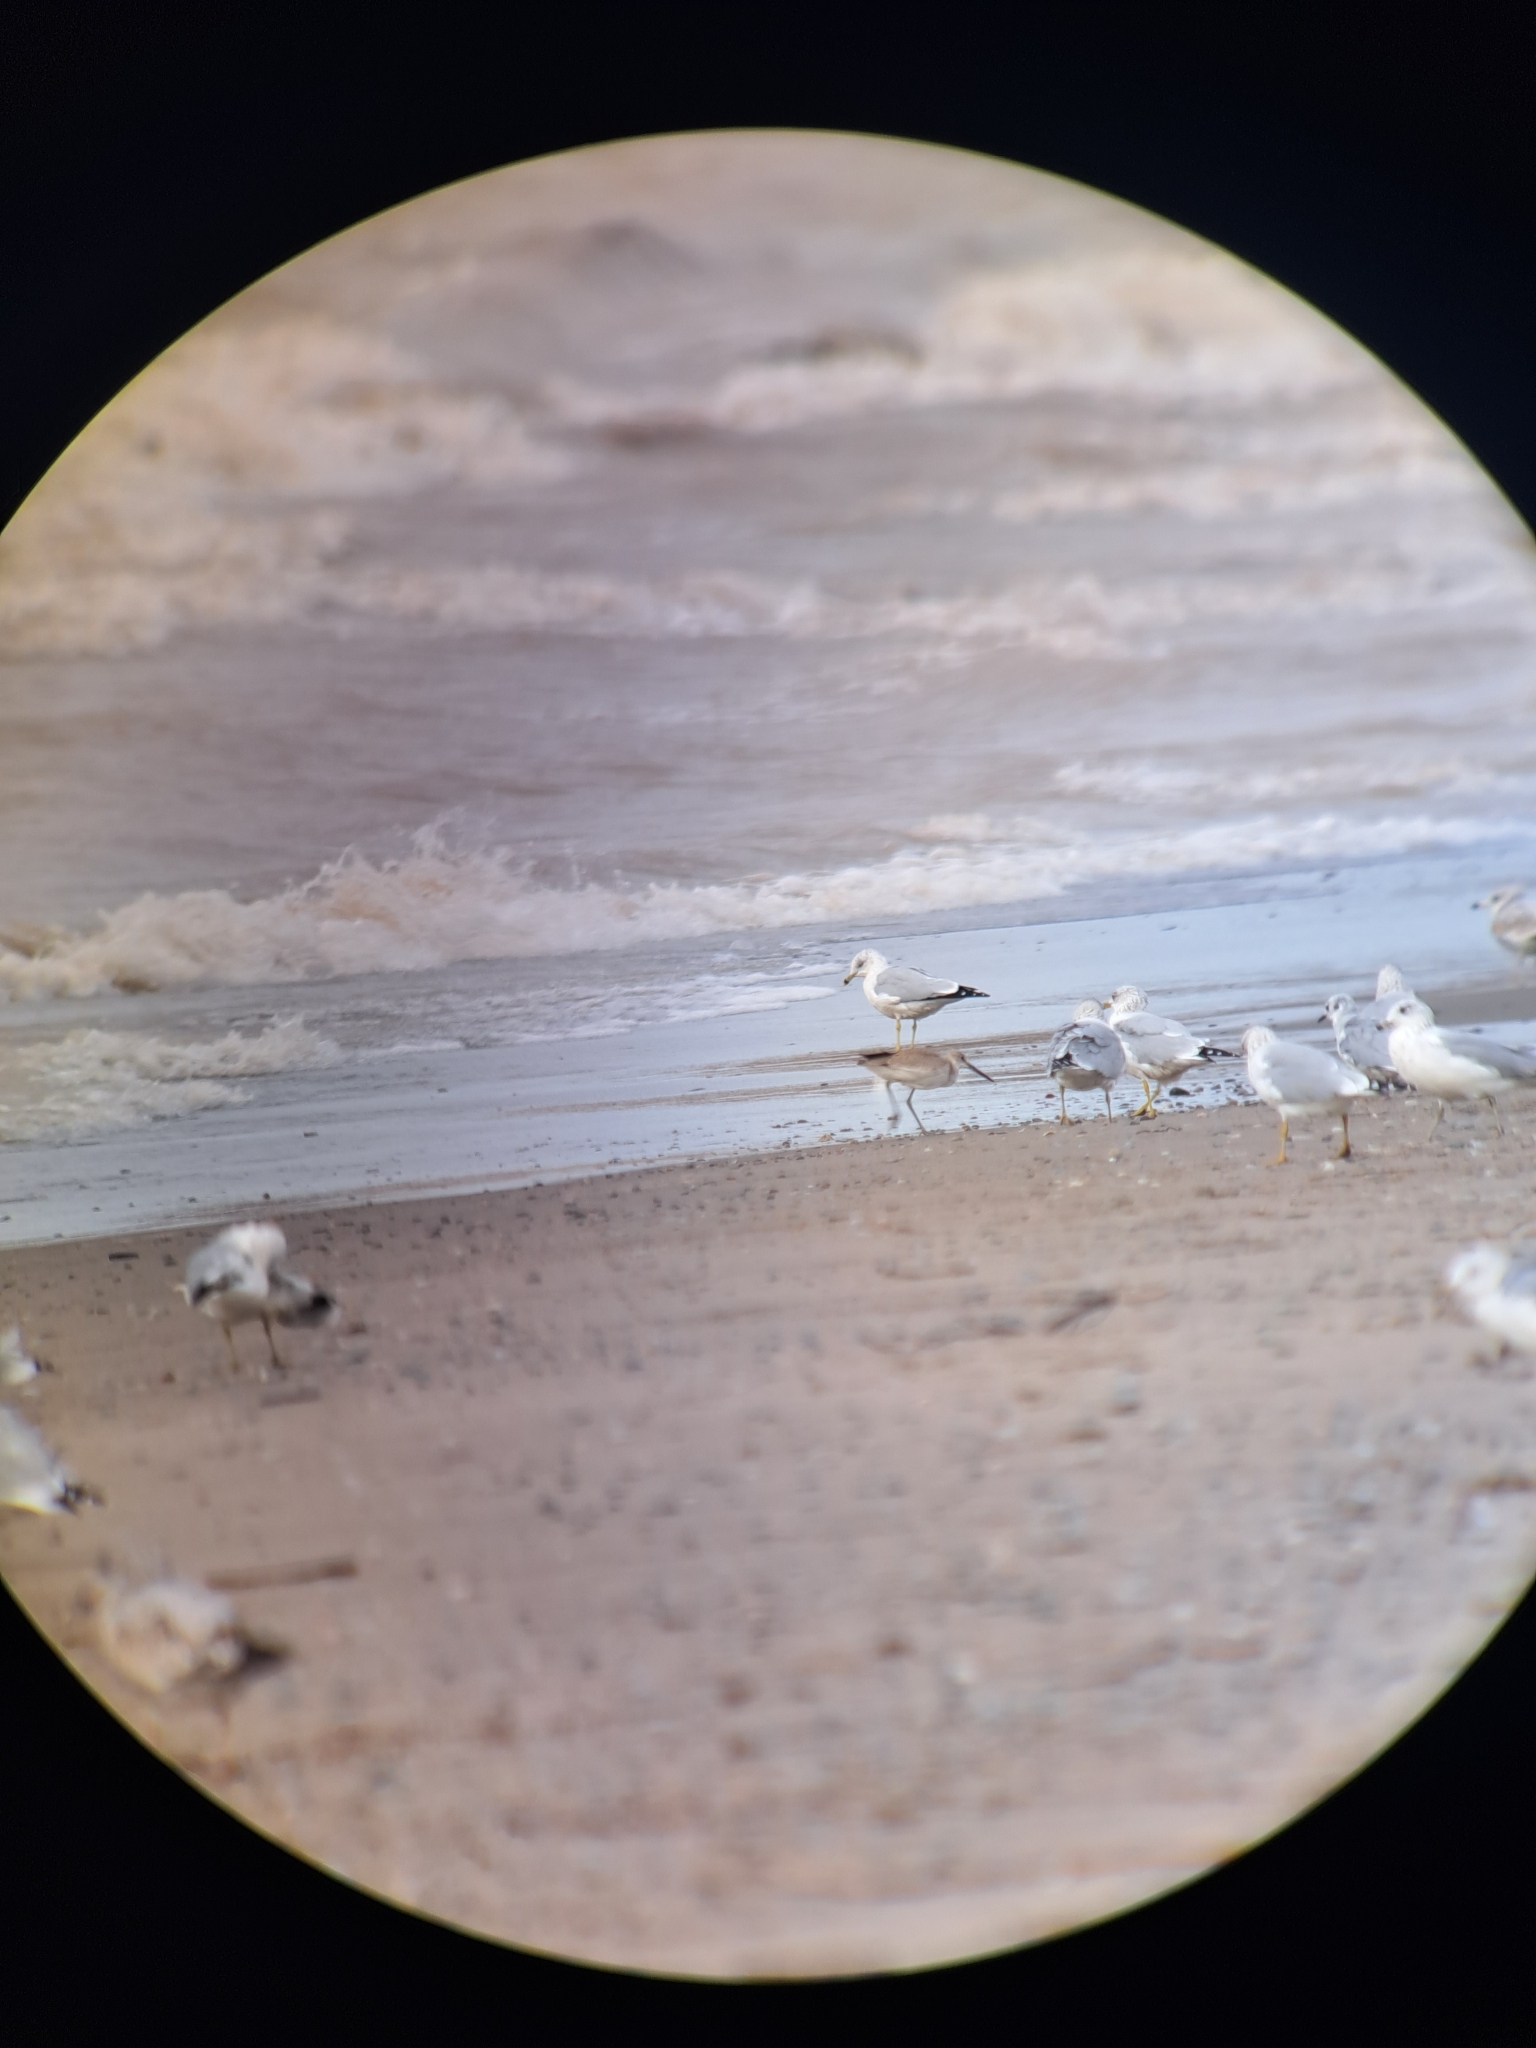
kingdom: Animalia
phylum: Chordata
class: Aves
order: Charadriiformes
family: Scolopacidae
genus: Tringa
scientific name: Tringa semipalmata
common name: Willet
